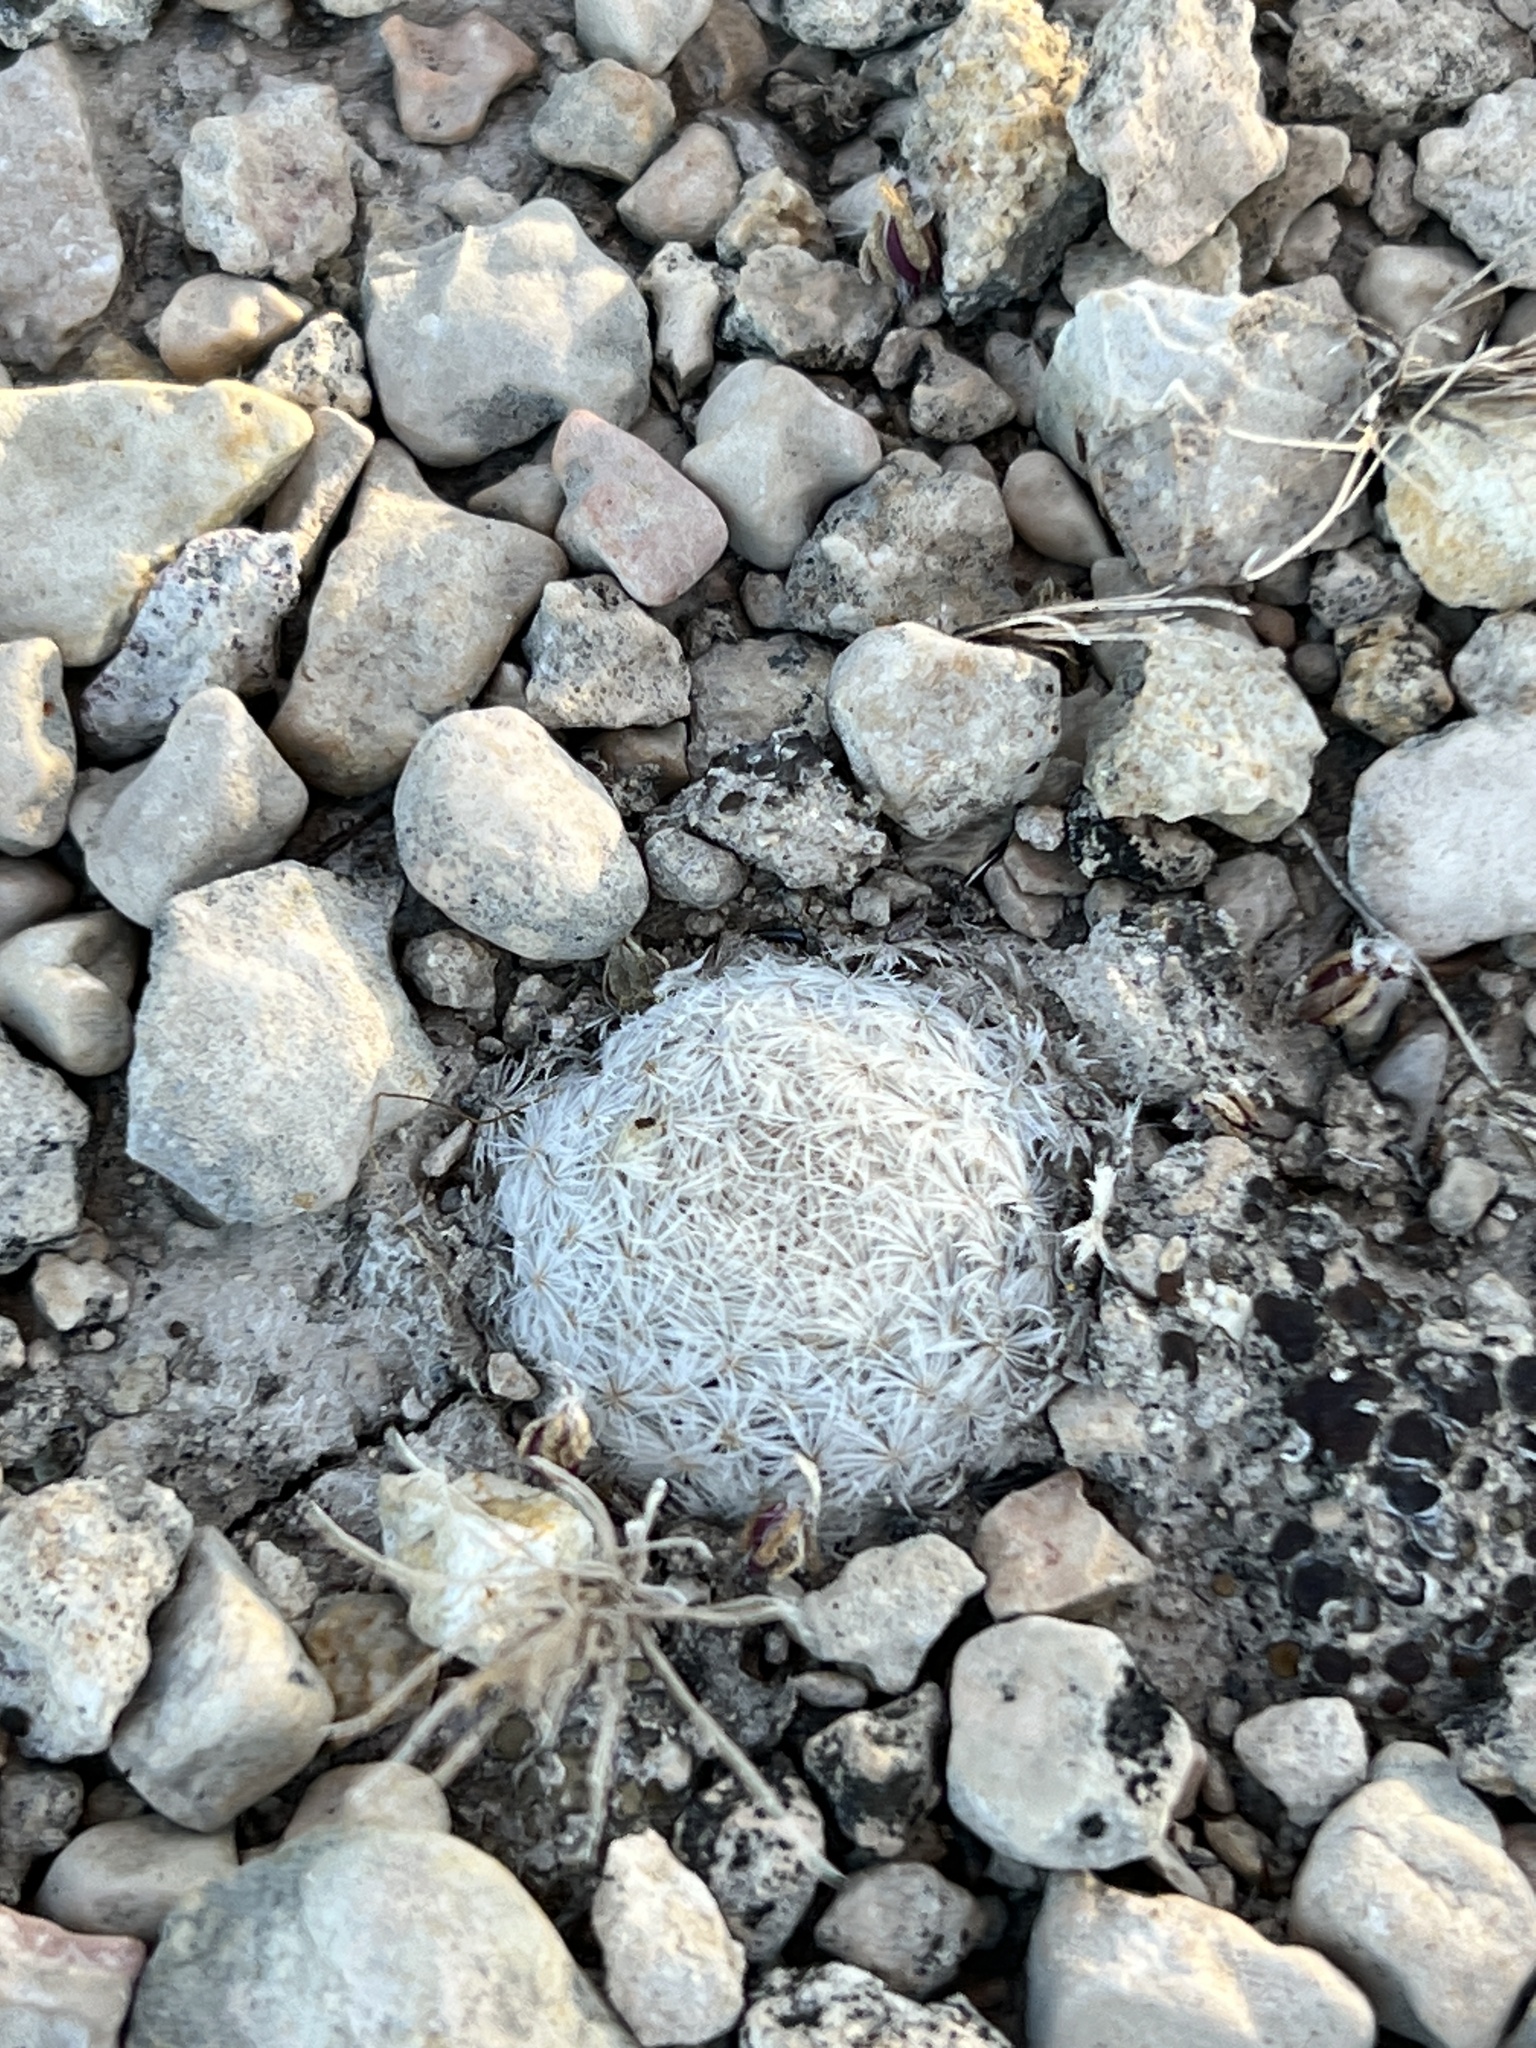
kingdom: Plantae
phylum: Tracheophyta
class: Magnoliopsida
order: Caryophyllales
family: Cactaceae
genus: Mammillaria
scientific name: Mammillaria lasiacantha
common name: Lace-spine nipple cactus
